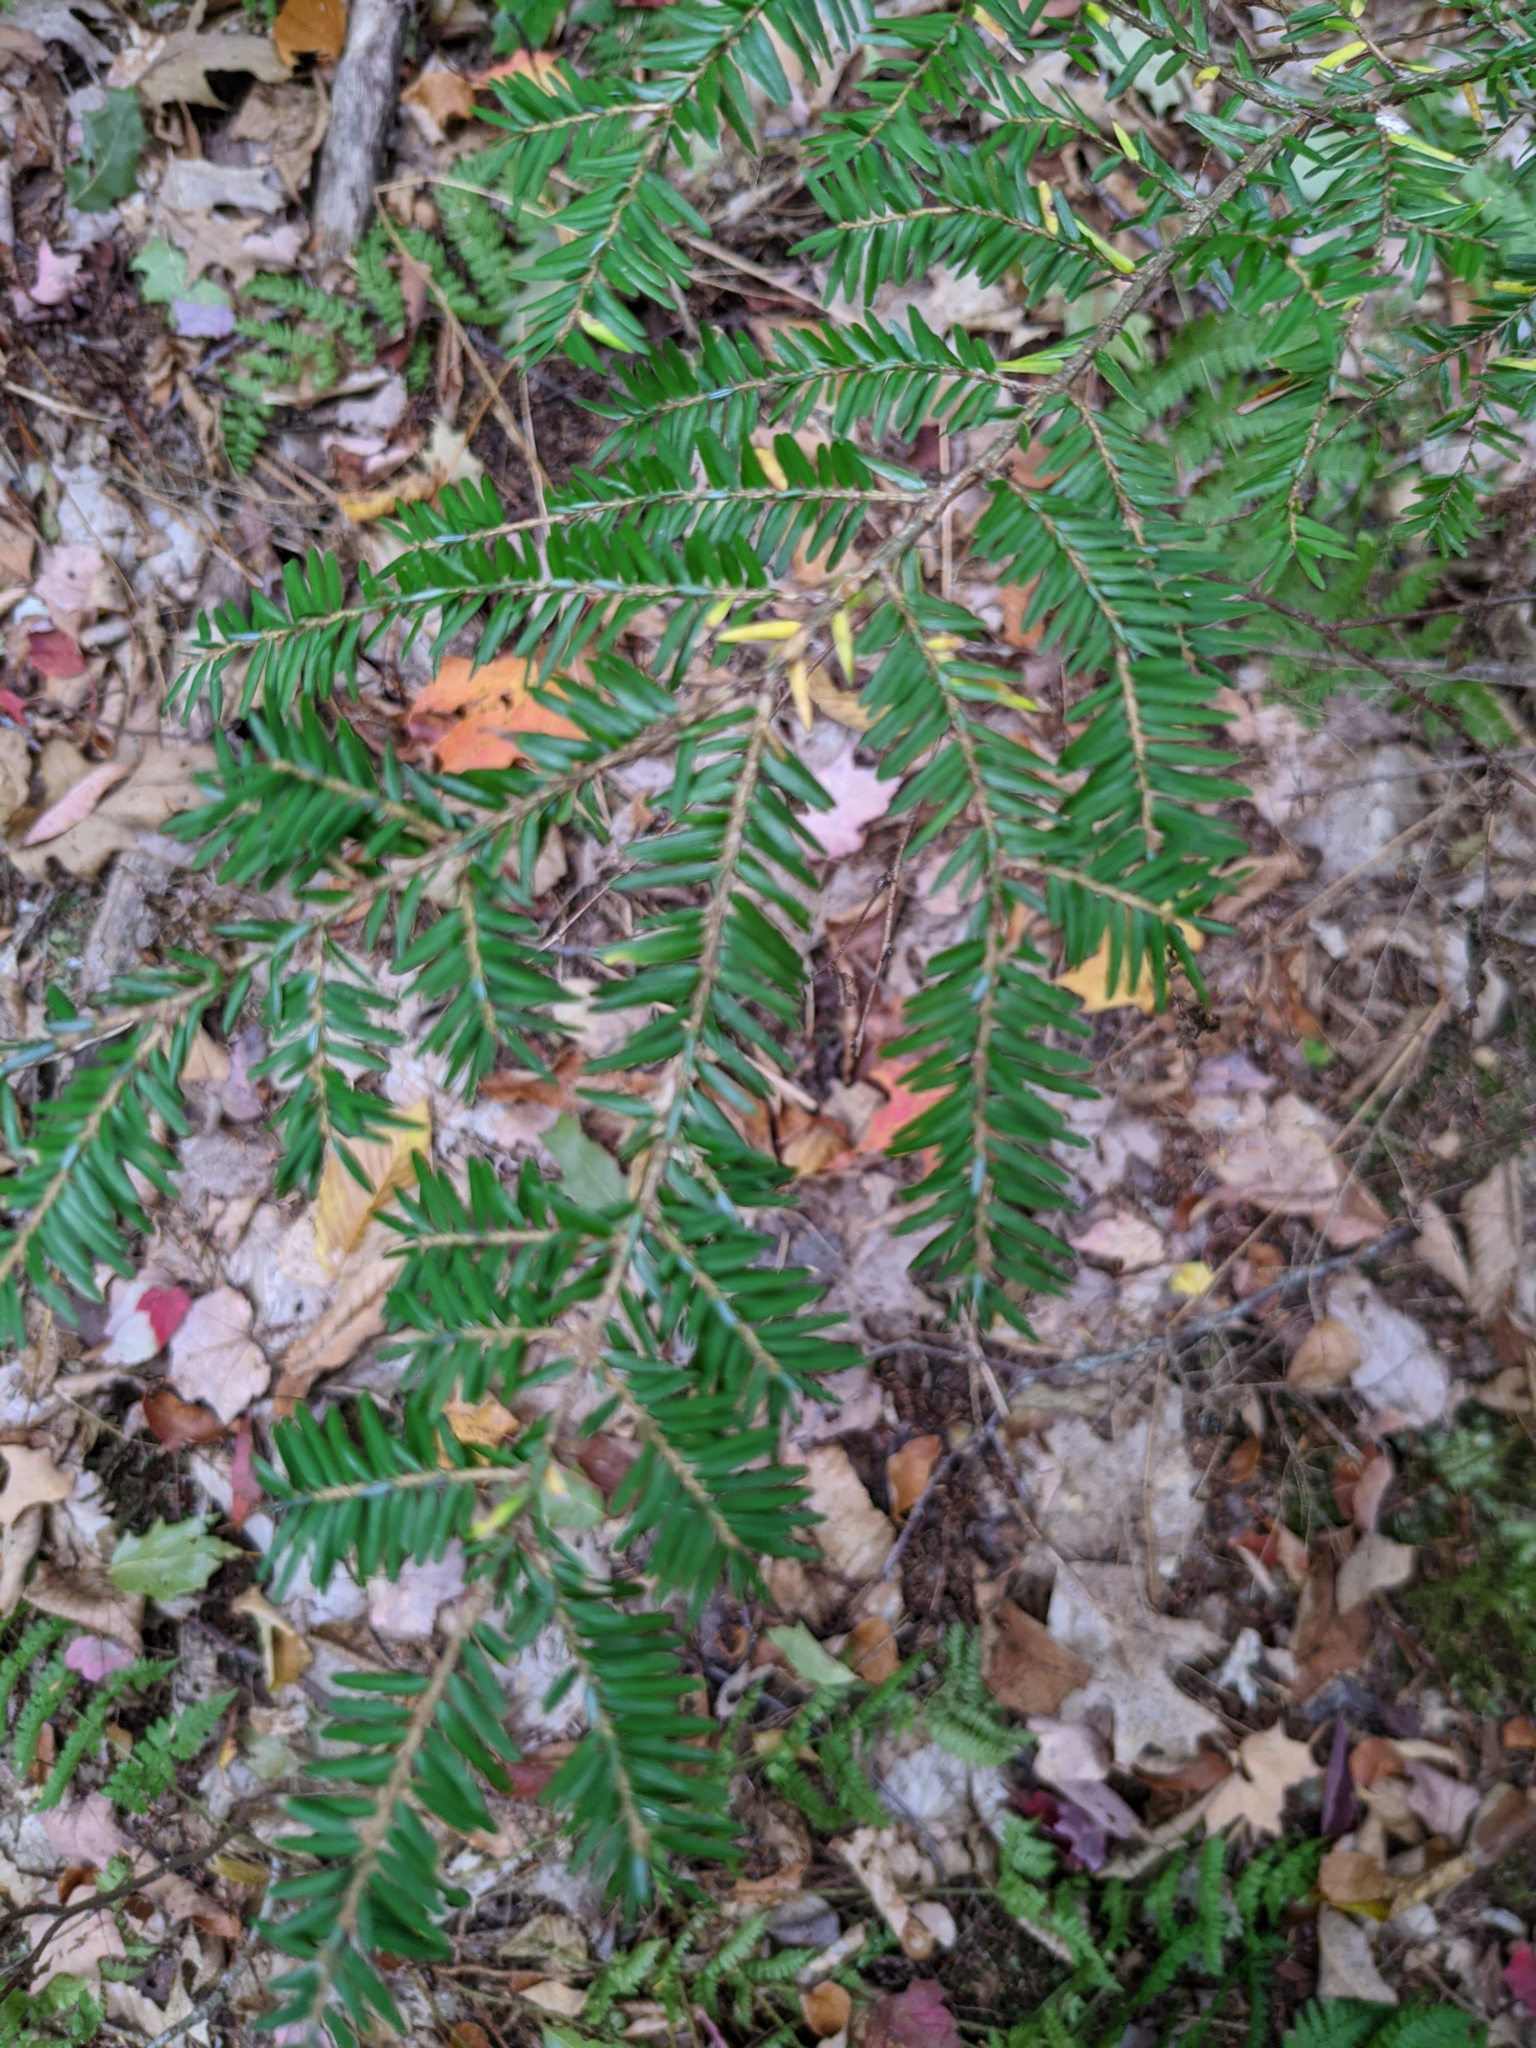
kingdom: Plantae
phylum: Tracheophyta
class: Pinopsida
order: Pinales
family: Pinaceae
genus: Tsuga
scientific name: Tsuga canadensis
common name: Eastern hemlock
